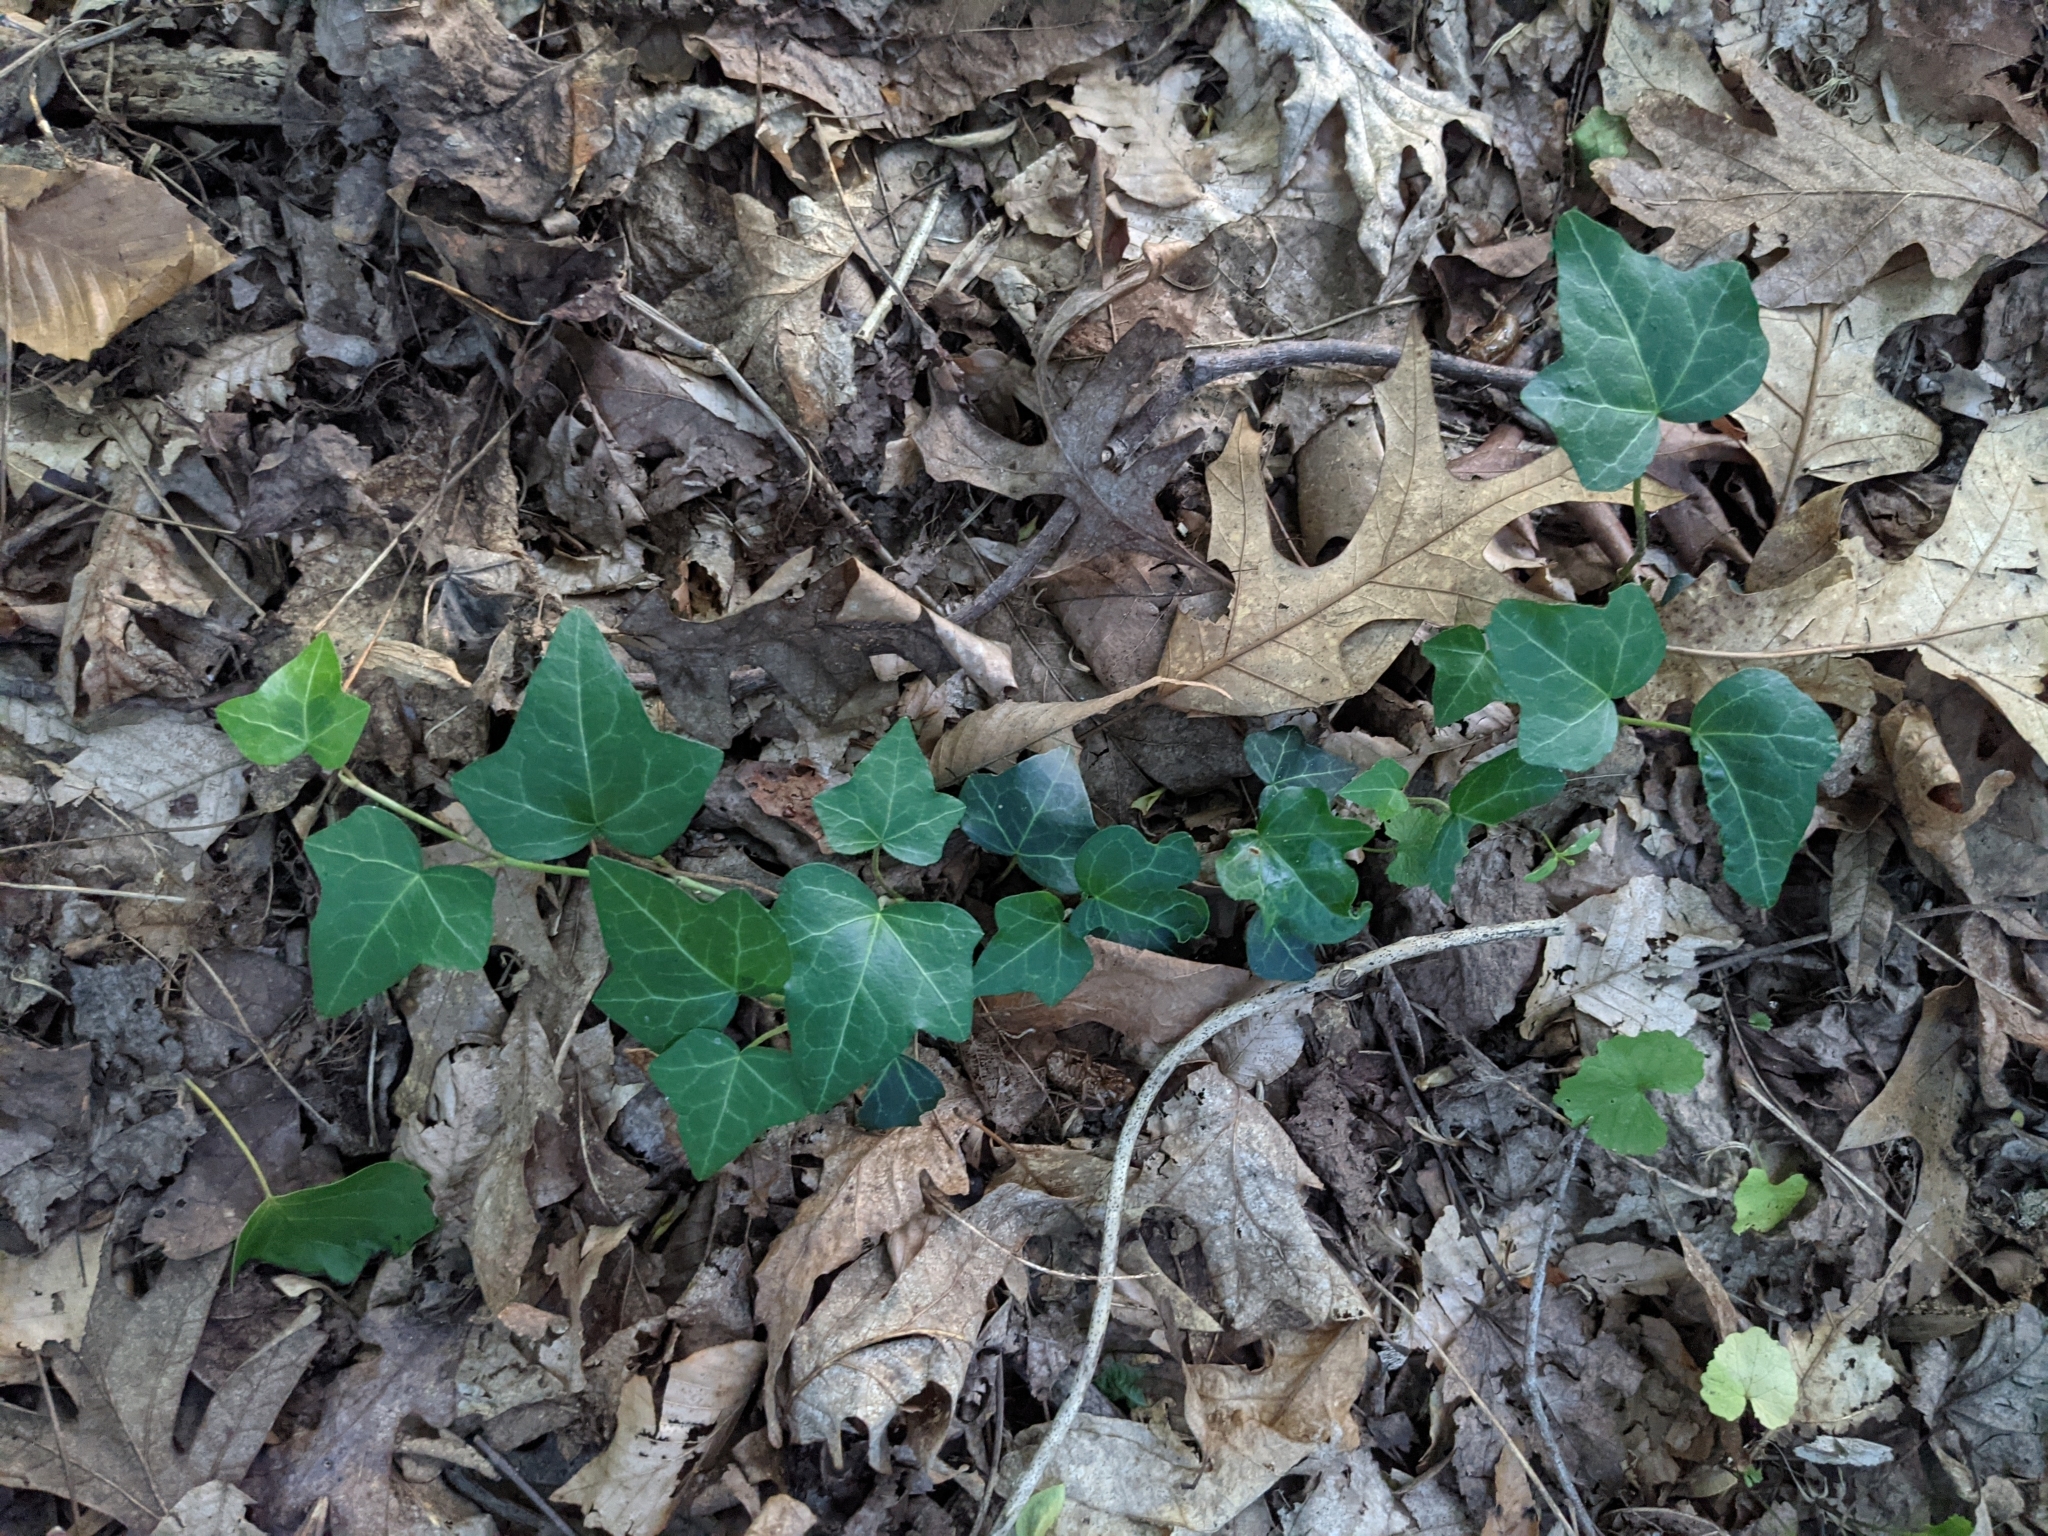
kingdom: Plantae
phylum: Tracheophyta
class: Magnoliopsida
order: Apiales
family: Araliaceae
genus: Hedera
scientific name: Hedera helix
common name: Ivy
